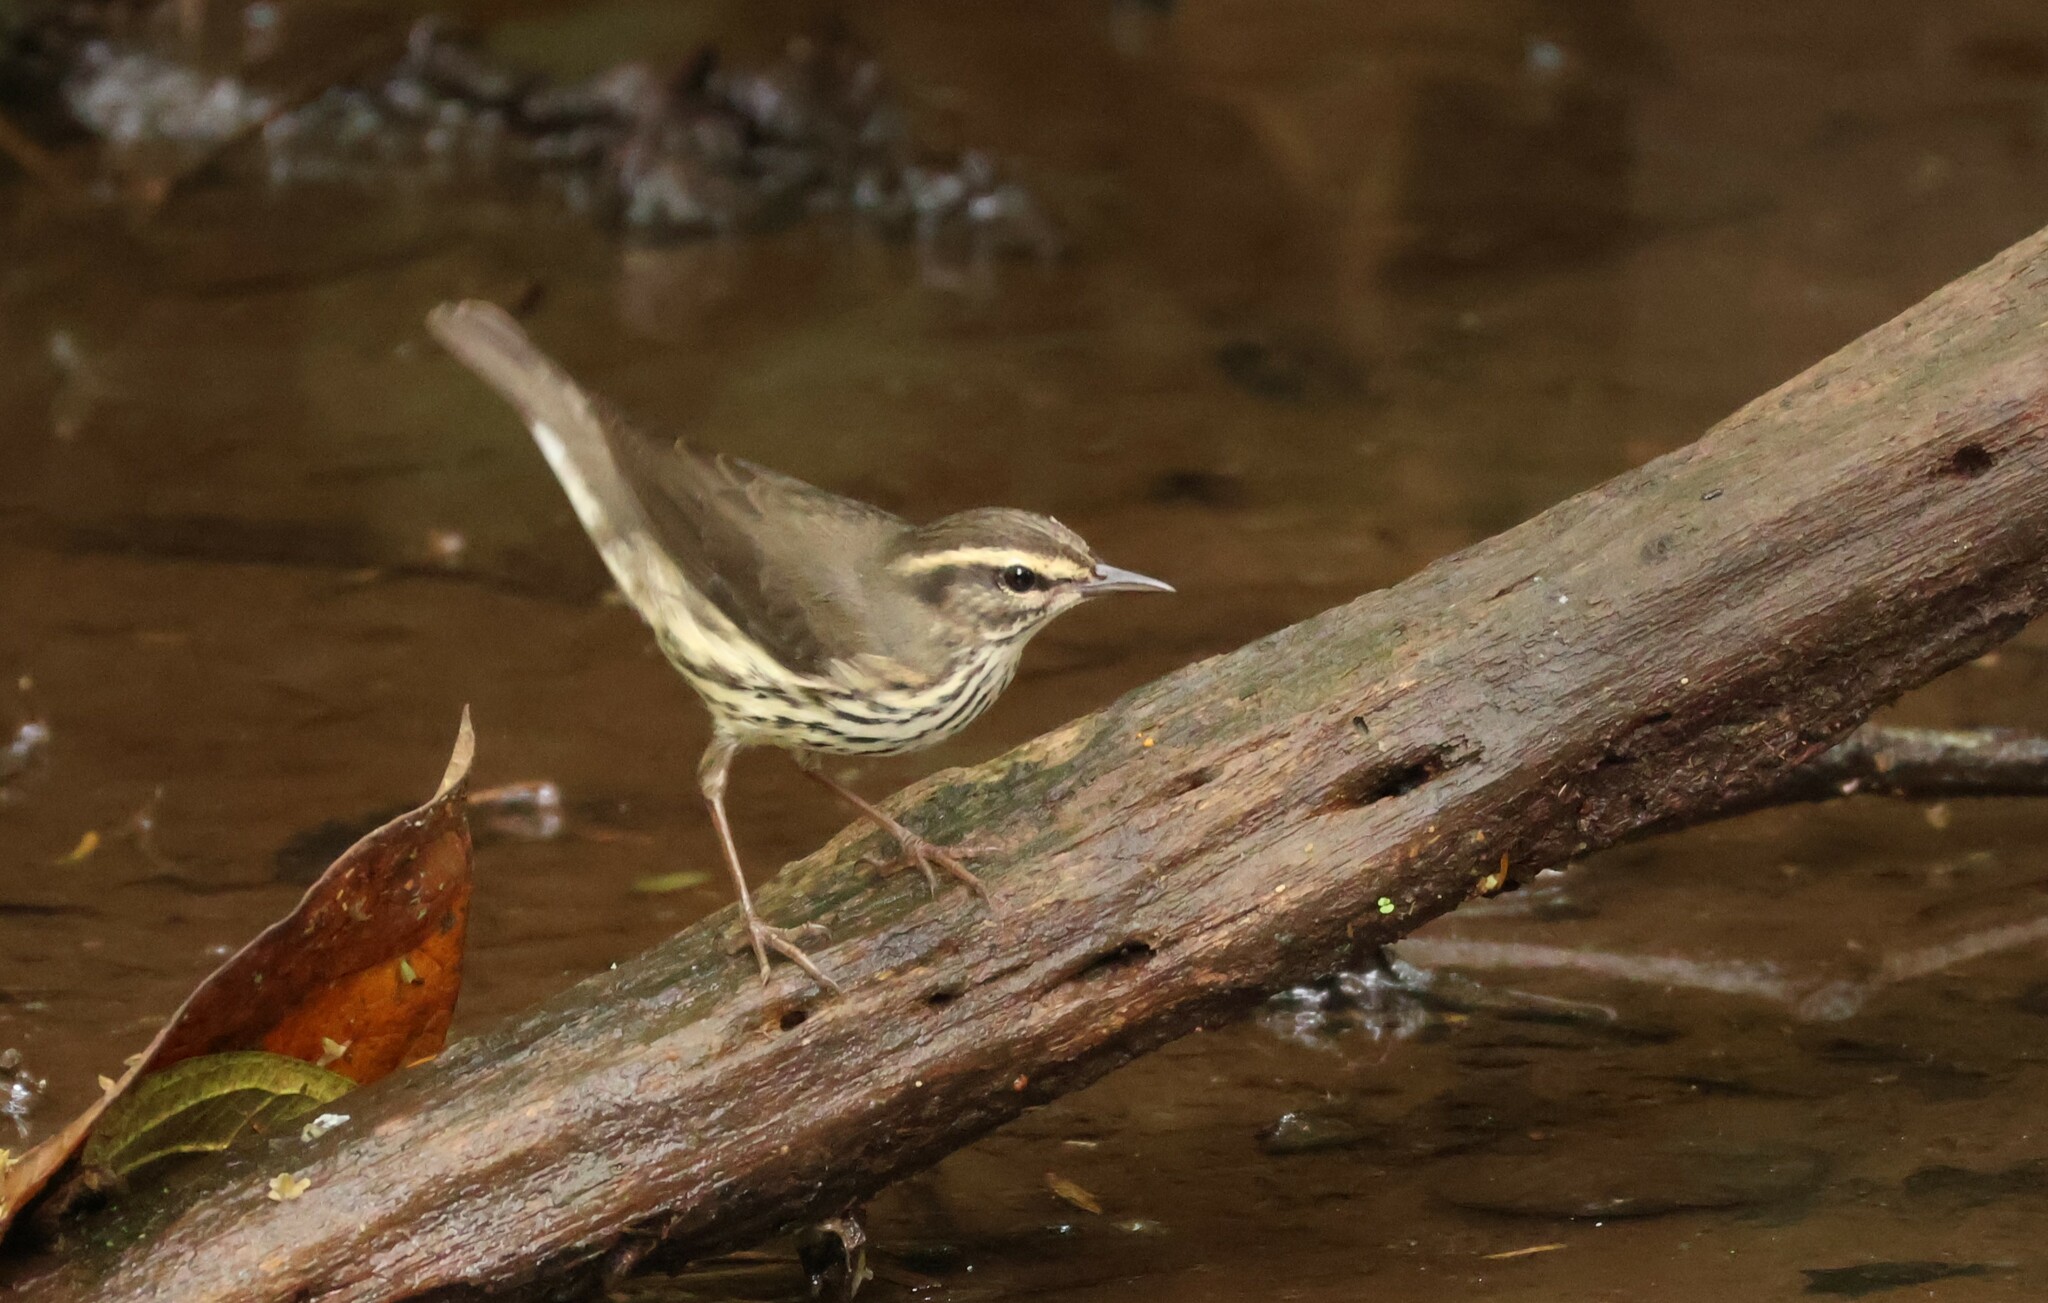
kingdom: Animalia
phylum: Chordata
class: Aves
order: Passeriformes
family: Parulidae
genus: Parkesia
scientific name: Parkesia noveboracensis
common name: Northern waterthrush
